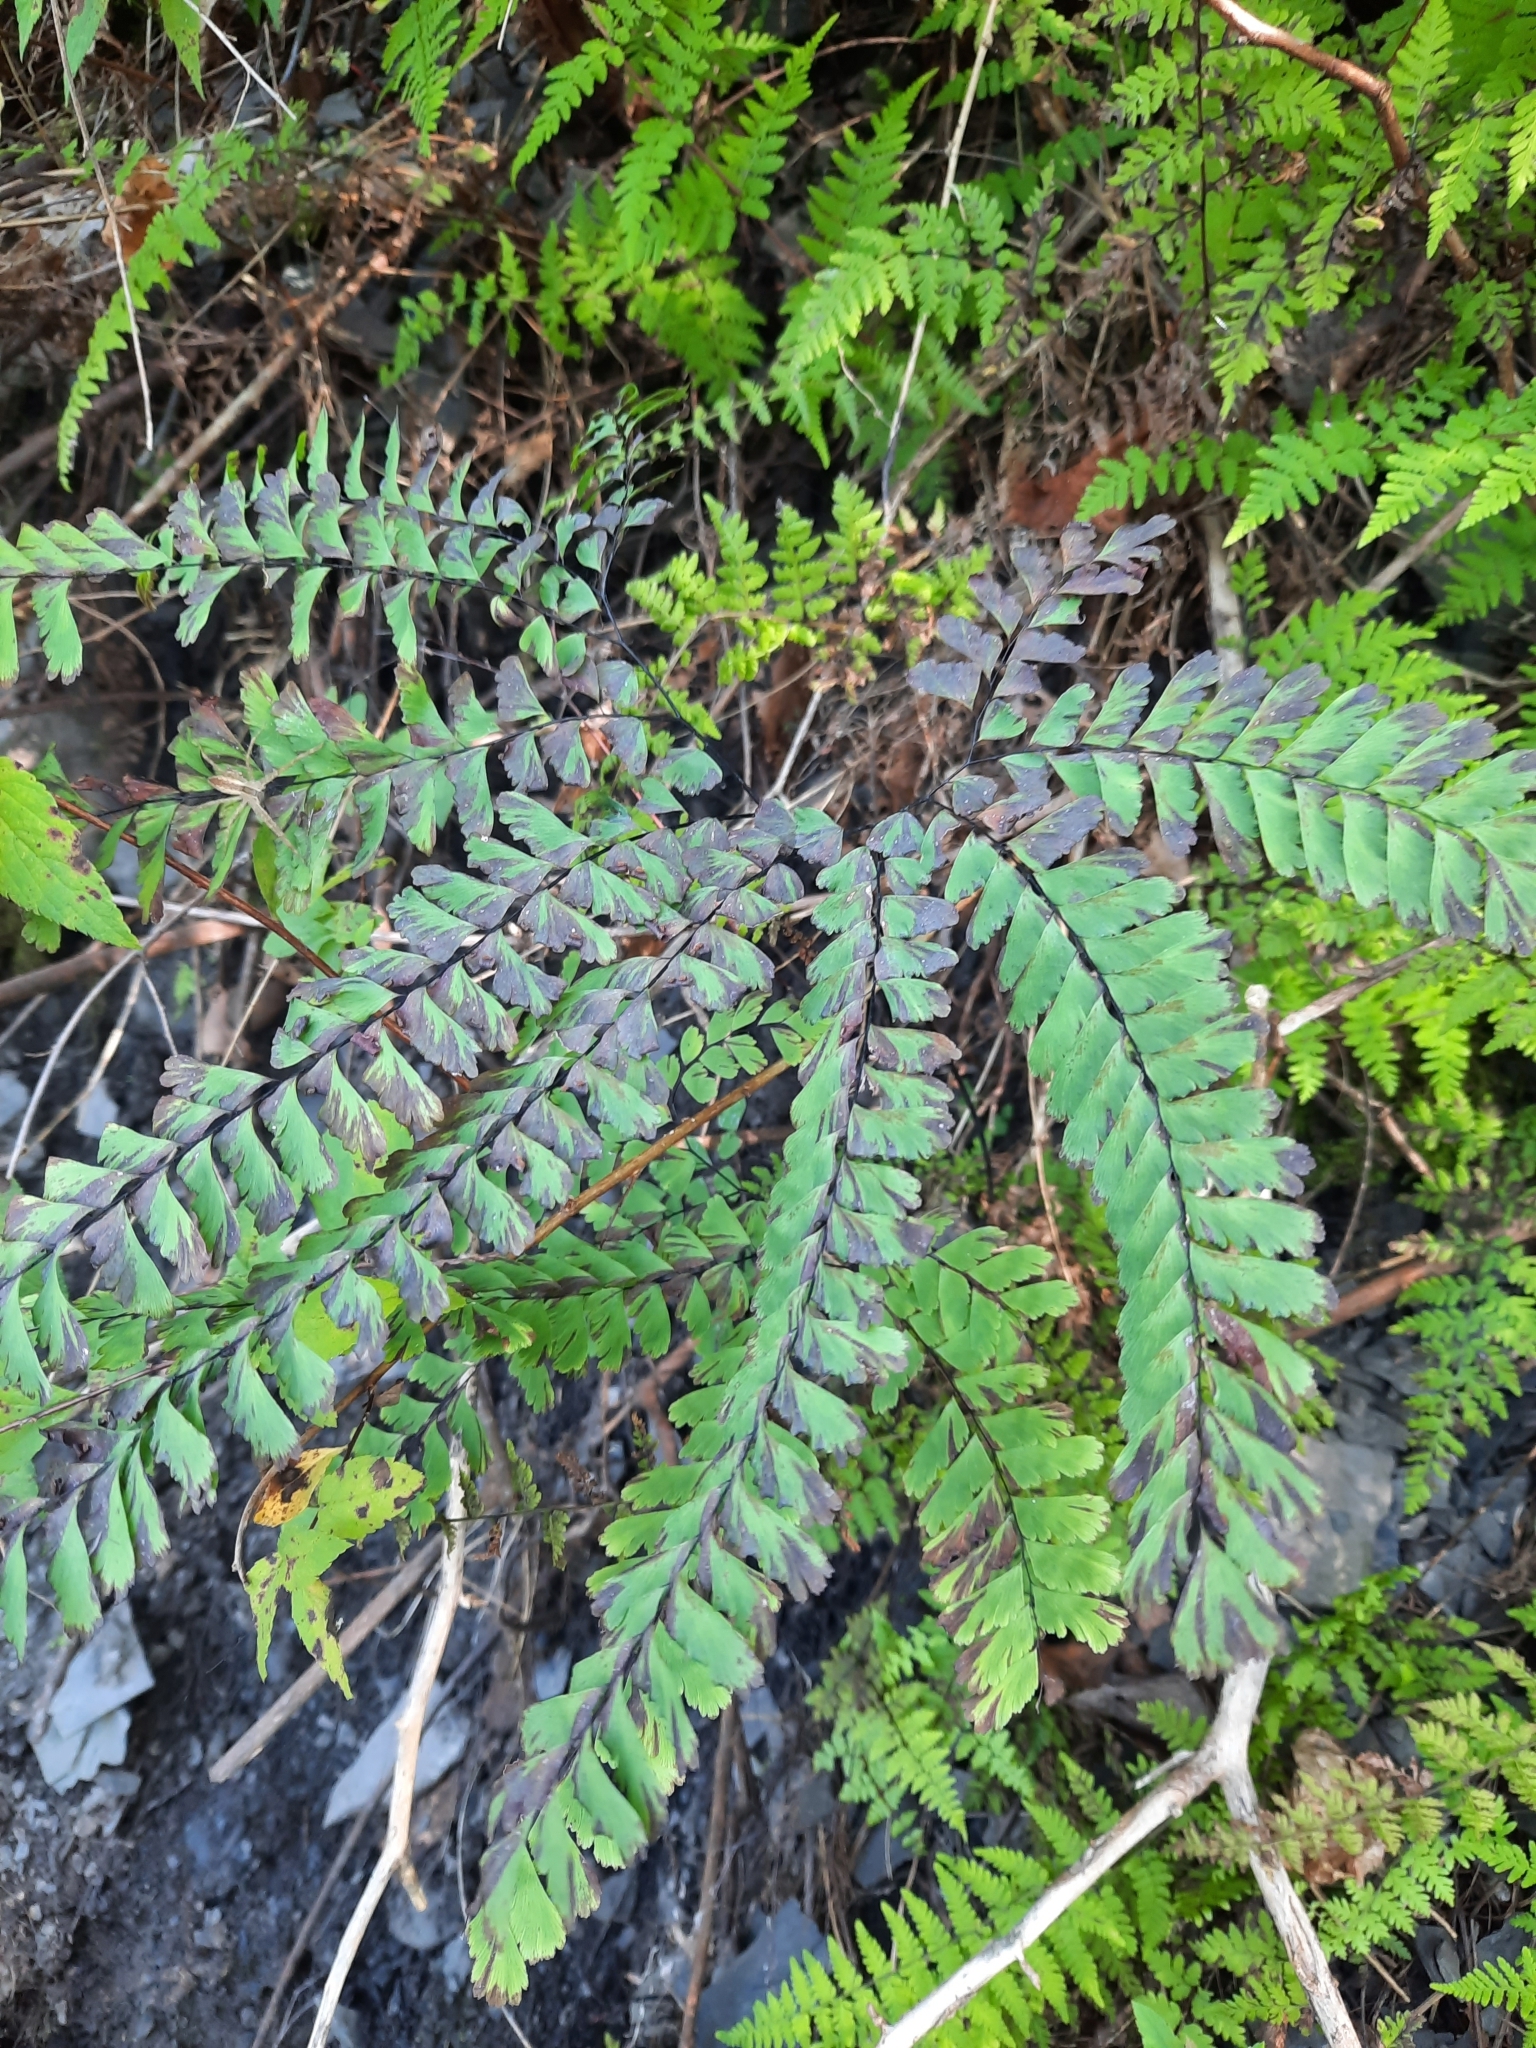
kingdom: Plantae
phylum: Tracheophyta
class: Polypodiopsida
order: Polypodiales
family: Pteridaceae
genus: Adiantum
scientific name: Adiantum pedatum
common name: Five-finger fern
